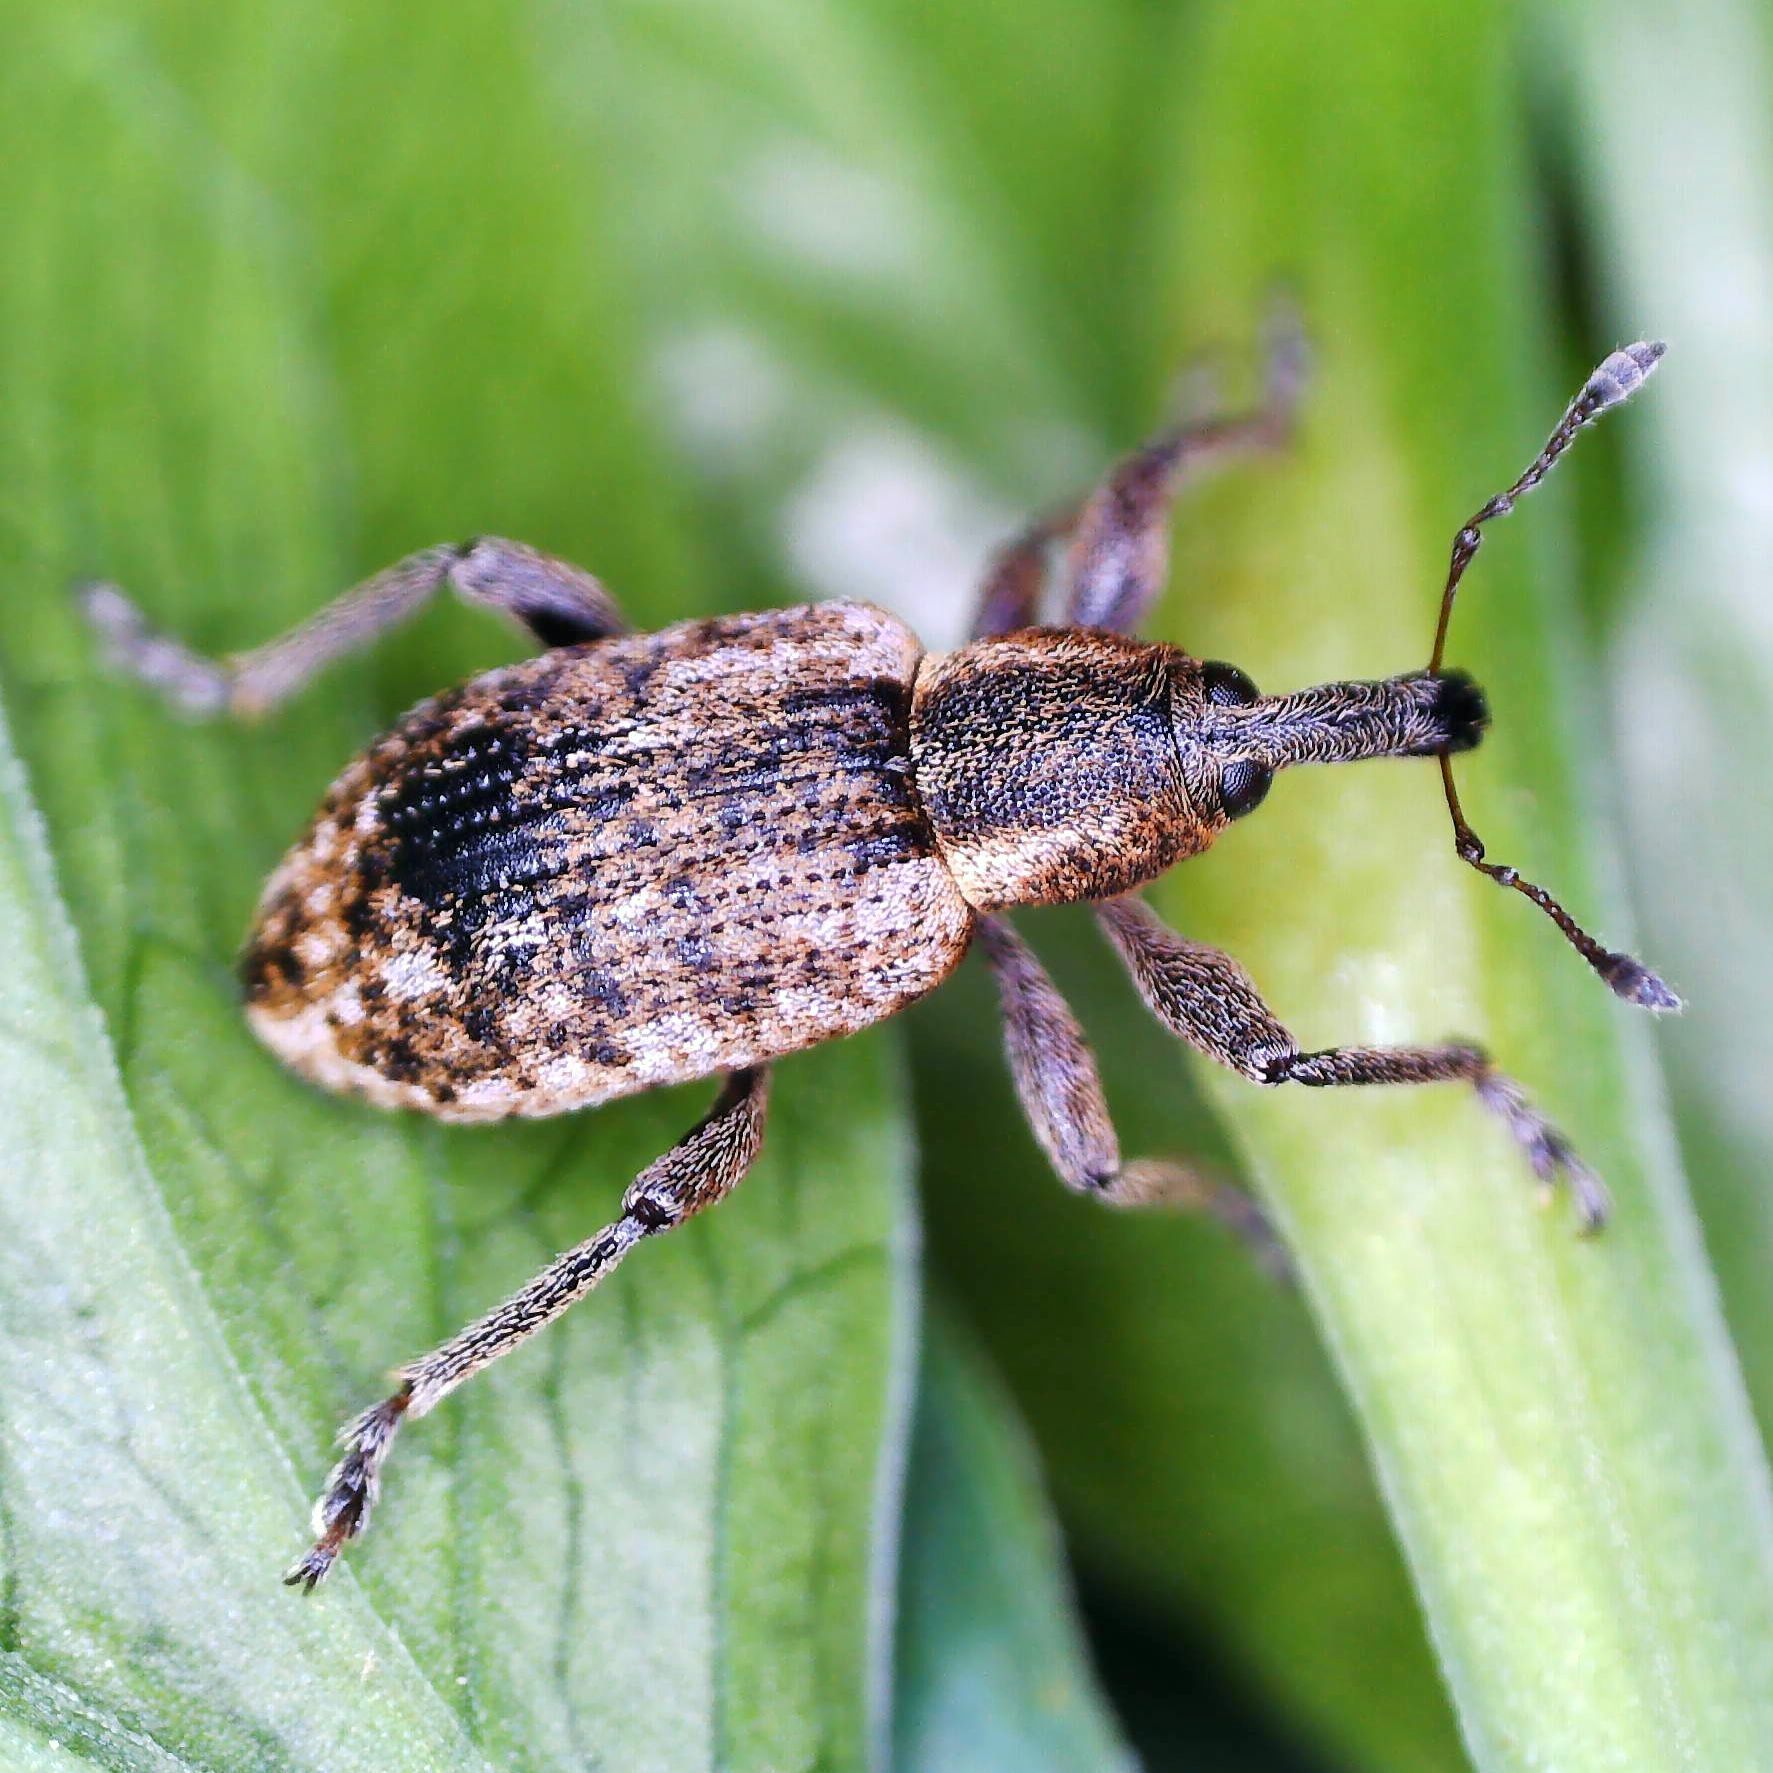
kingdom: Animalia
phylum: Arthropoda
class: Insecta
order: Coleoptera
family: Curculionidae
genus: Hypera
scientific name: Hypera conmaculata
